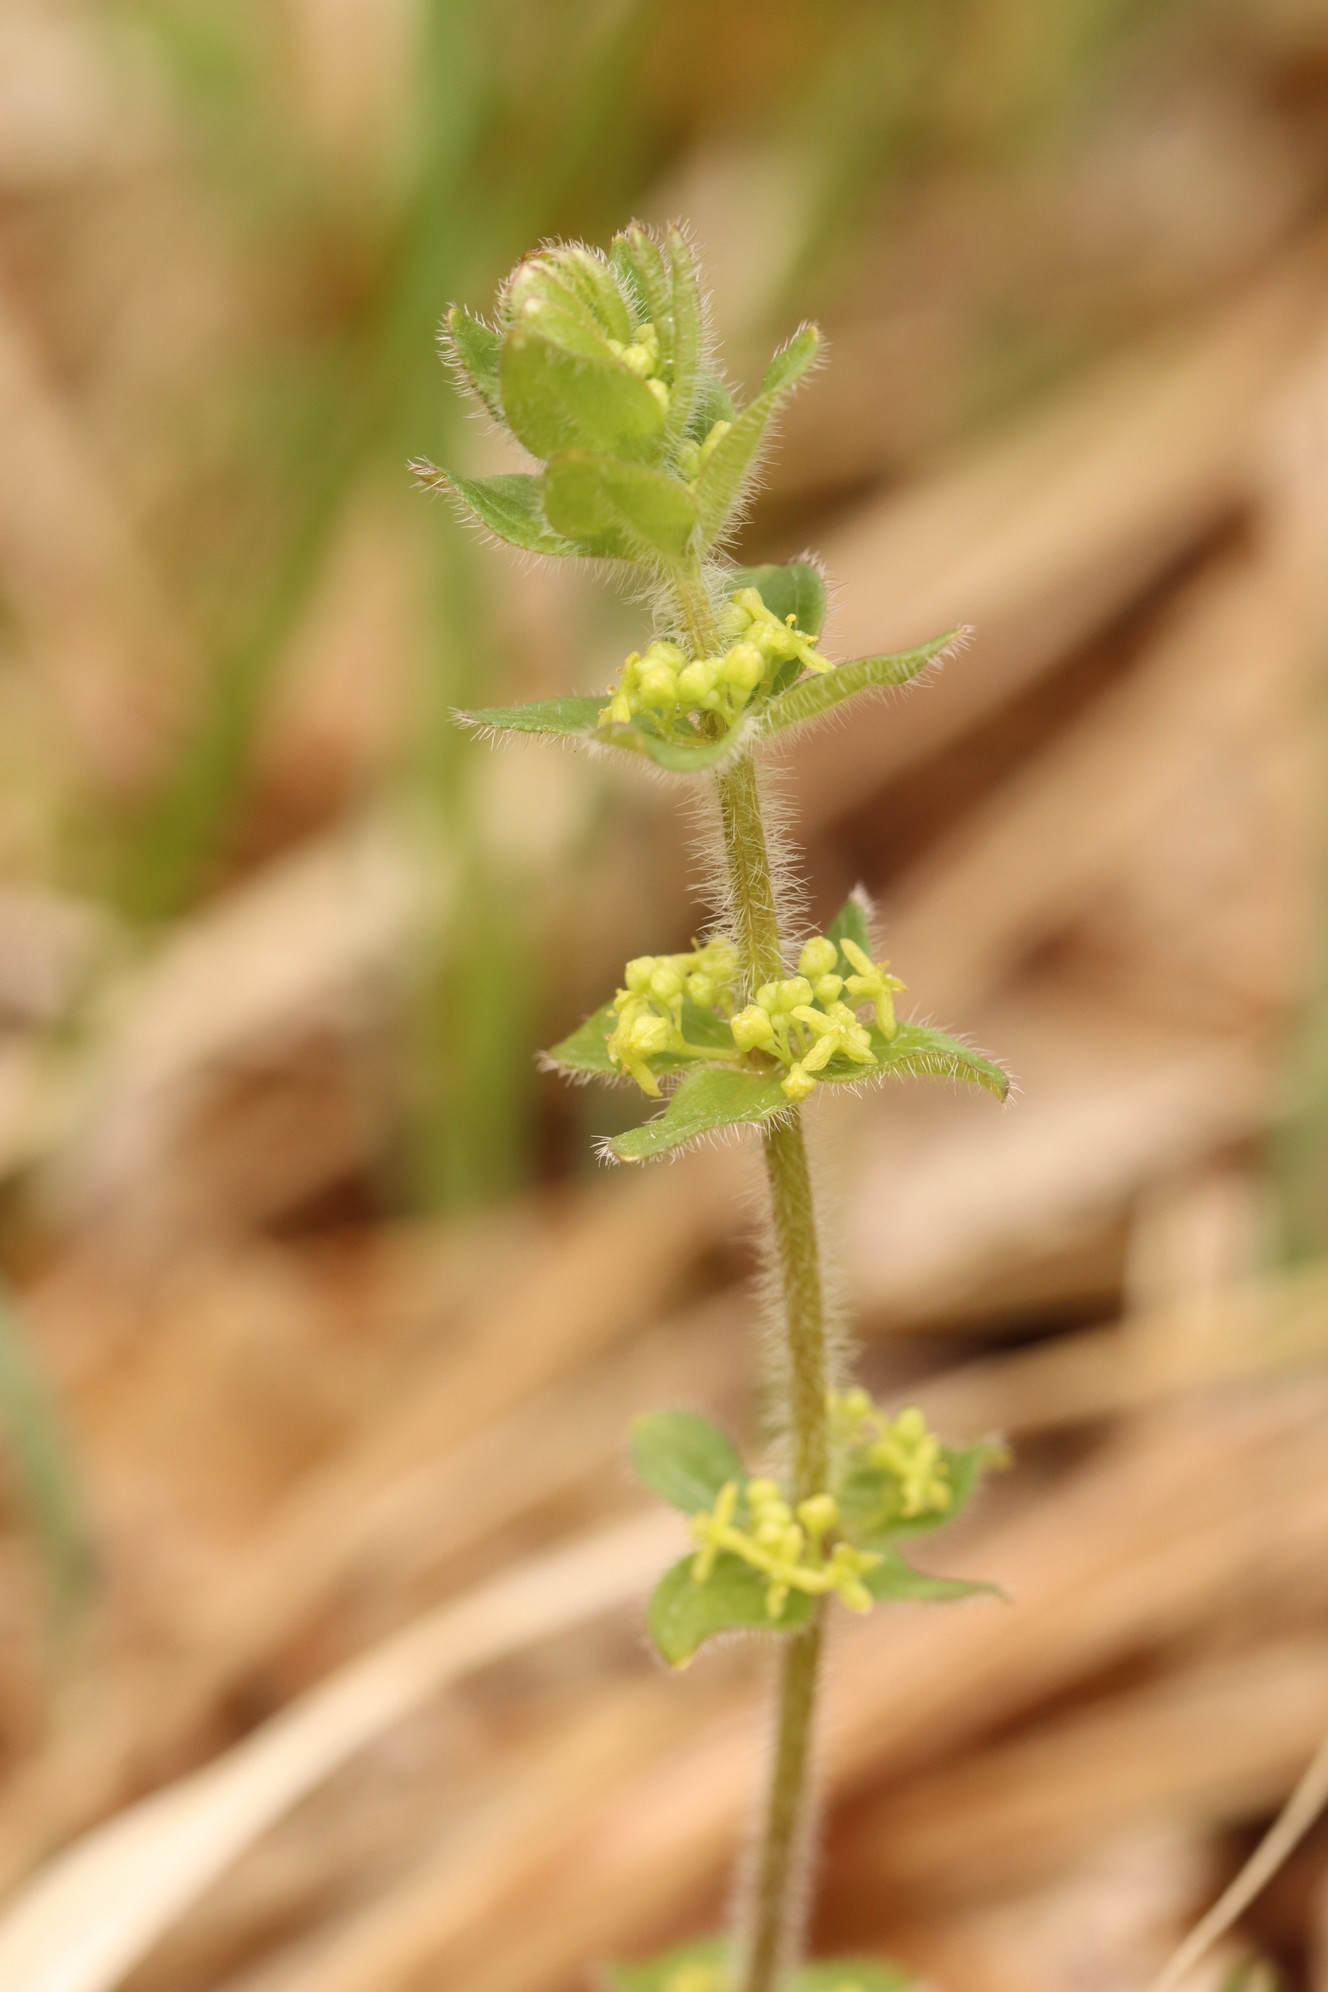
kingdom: Plantae
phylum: Tracheophyta
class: Magnoliopsida
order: Gentianales
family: Rubiaceae
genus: Cruciata
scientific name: Cruciata glabra
